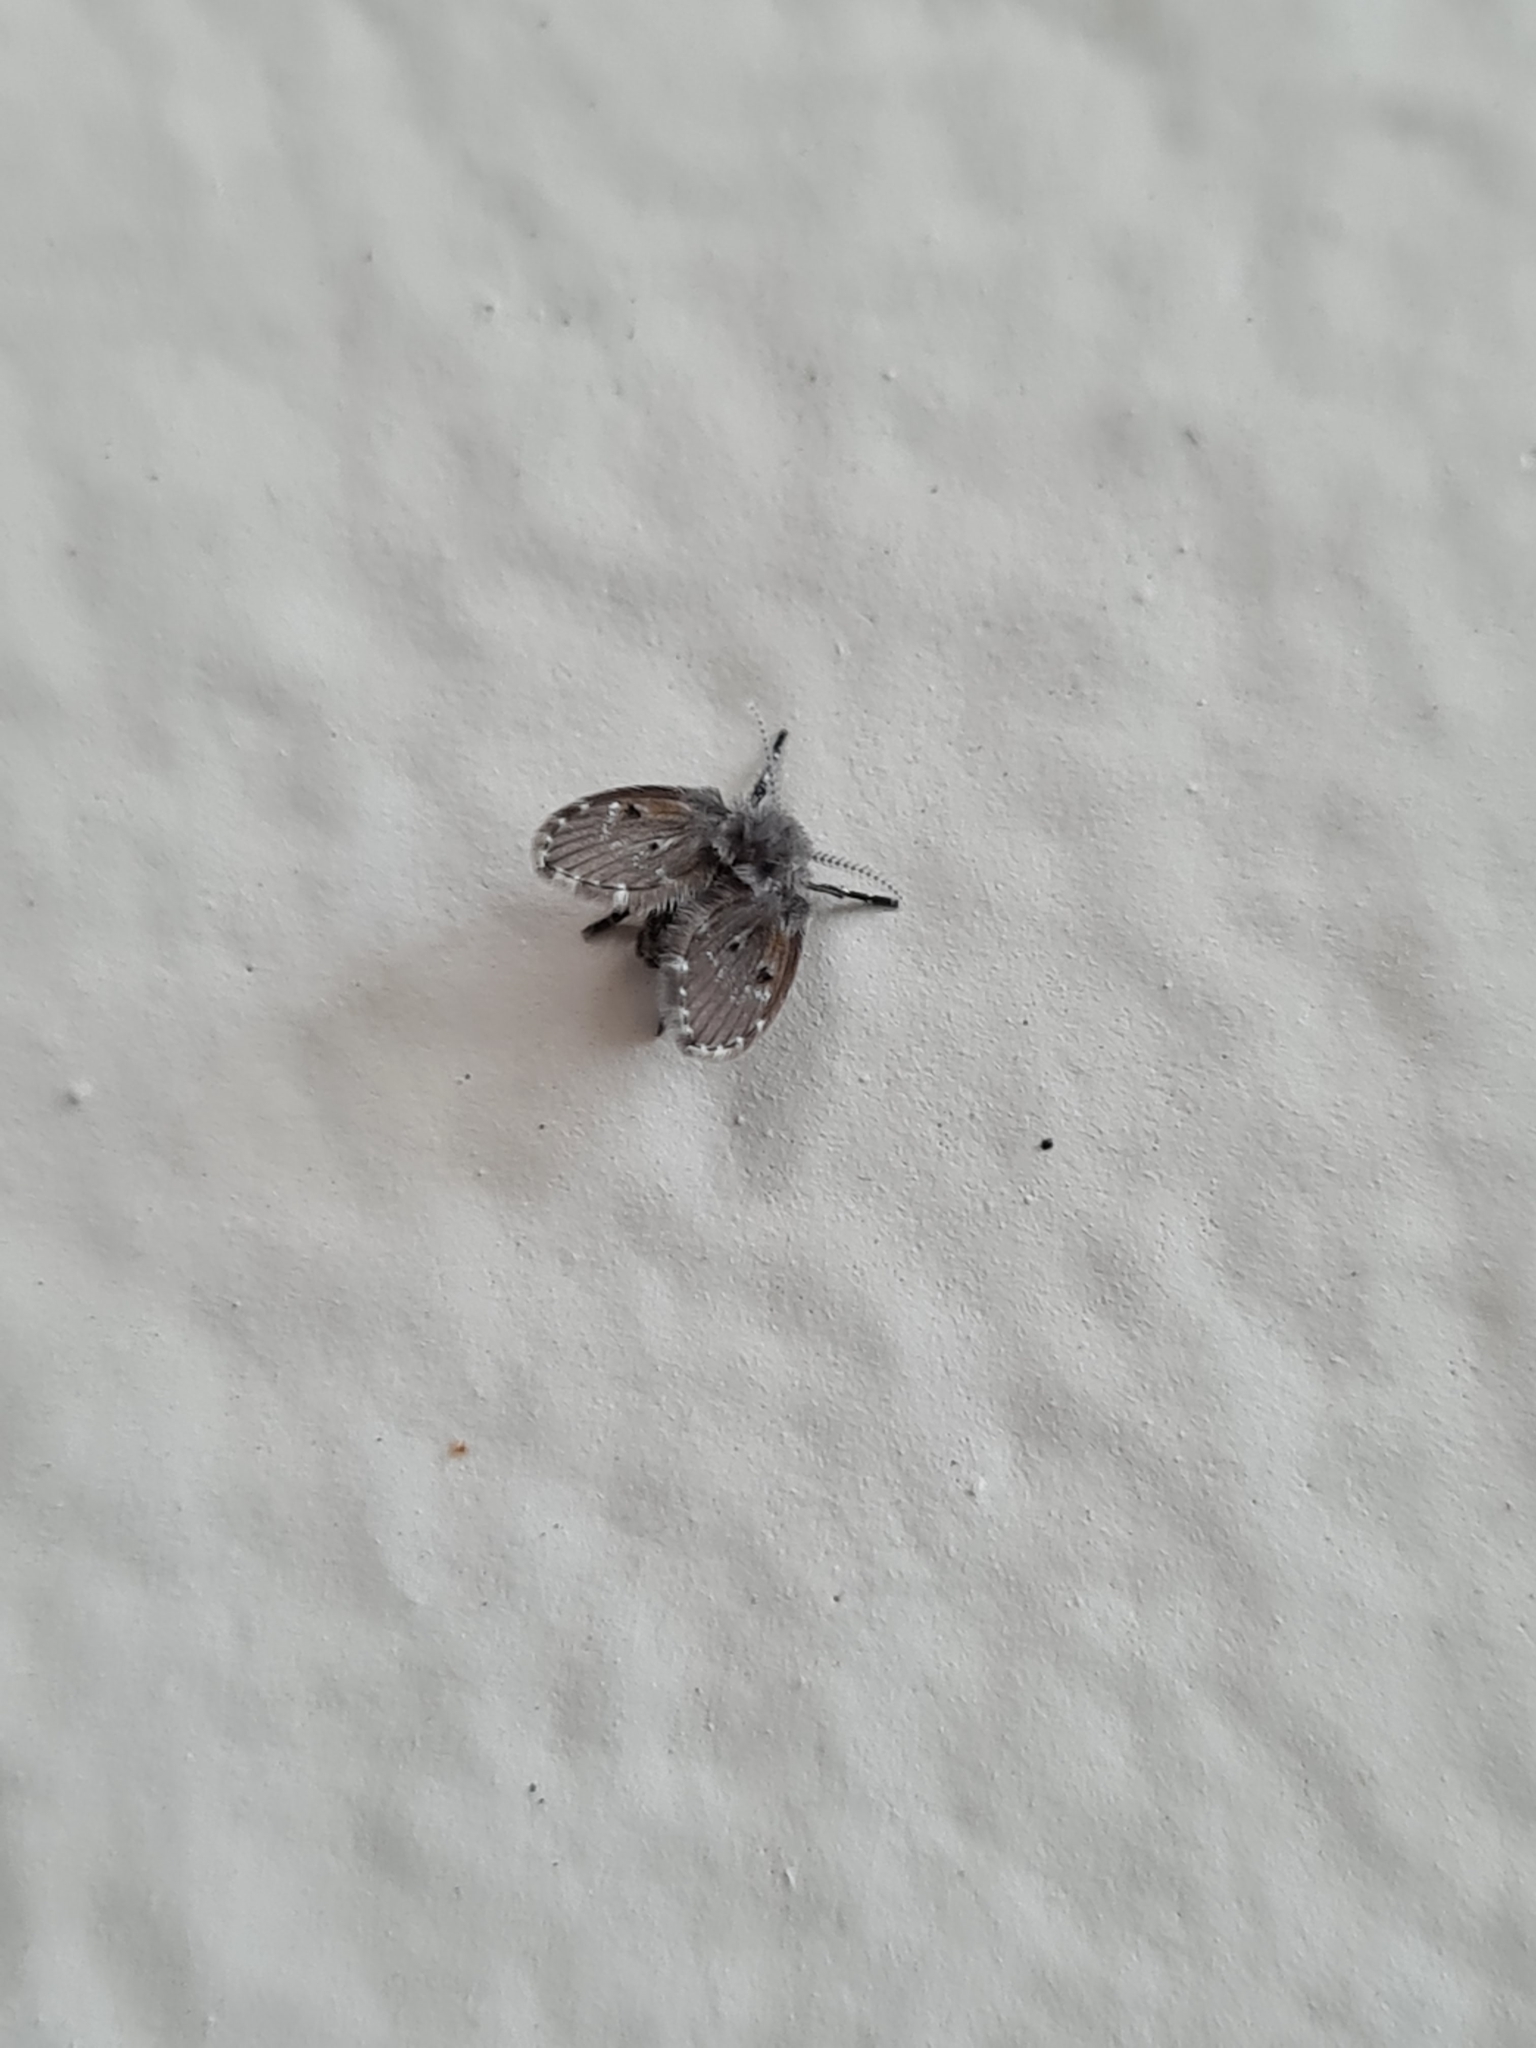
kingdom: Animalia
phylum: Arthropoda
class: Insecta
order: Diptera
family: Psychodidae
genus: Clogmia
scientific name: Clogmia albipunctatus
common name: White-spotted moth fly
